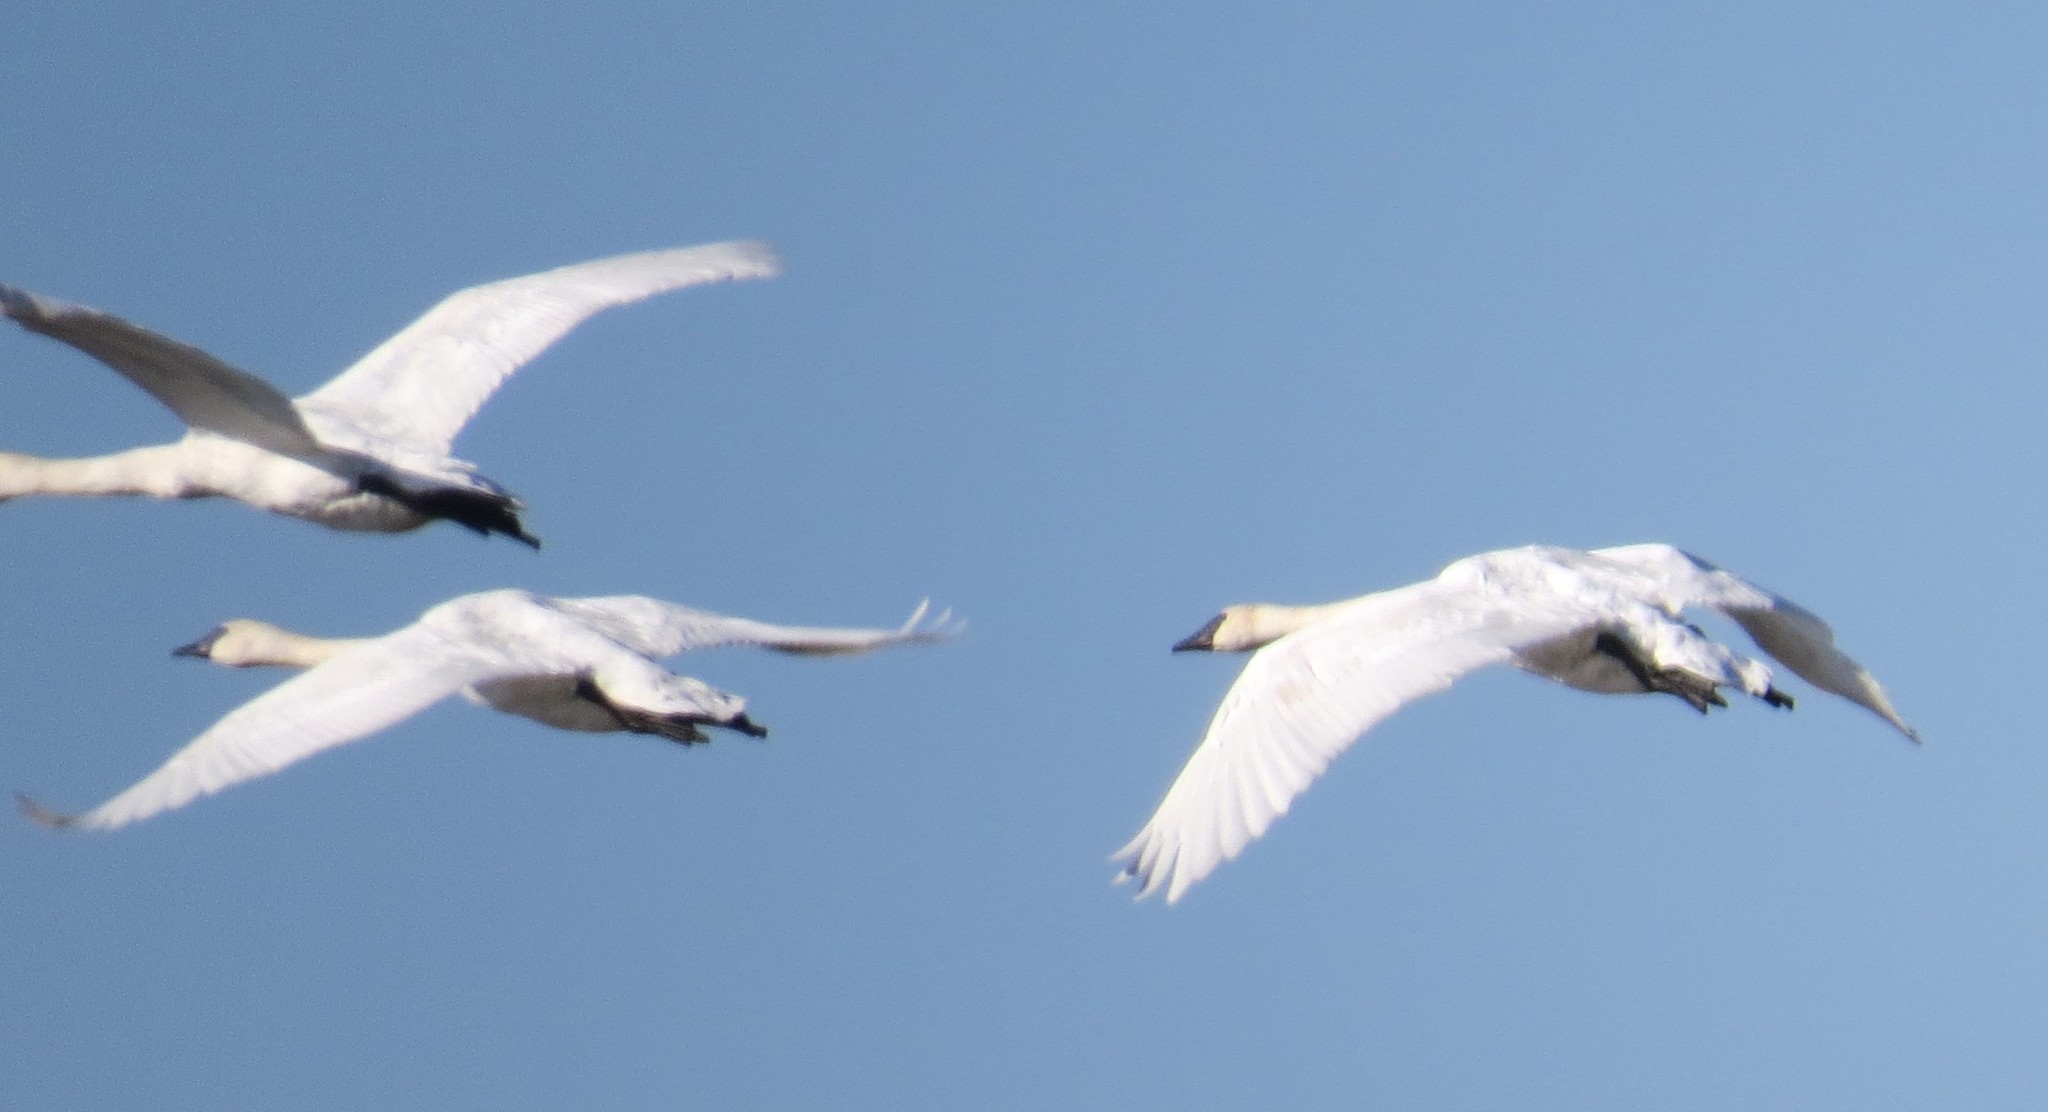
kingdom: Animalia
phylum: Chordata
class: Aves
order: Anseriformes
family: Anatidae
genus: Cygnus
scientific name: Cygnus buccinator
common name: Trumpeter swan
